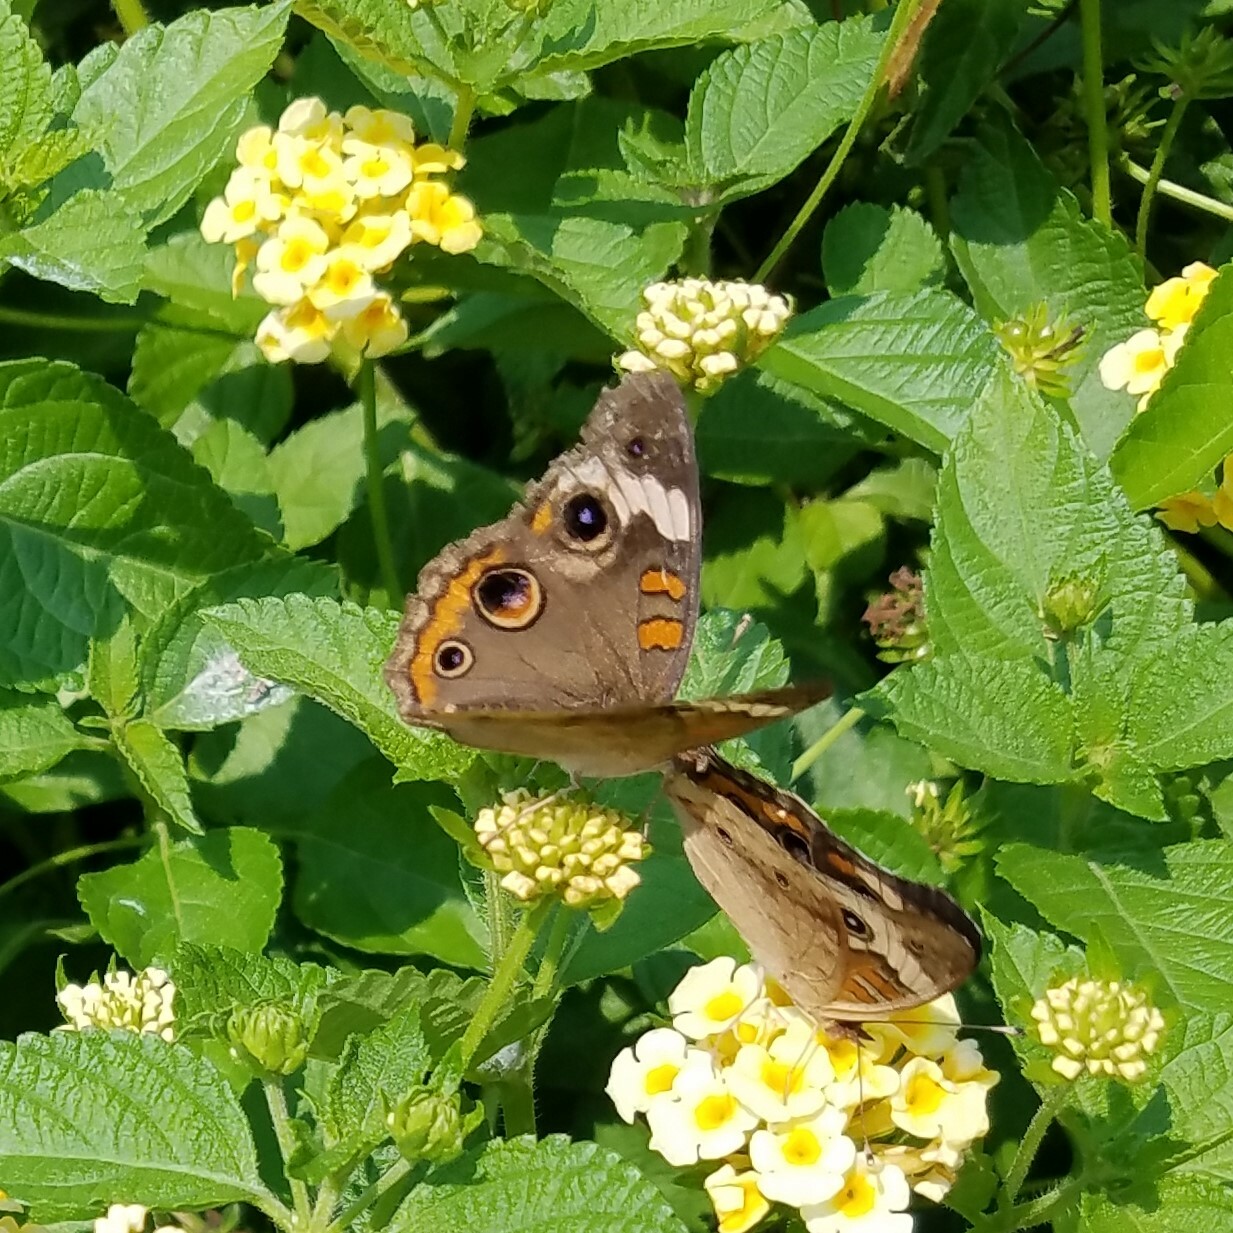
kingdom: Animalia
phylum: Arthropoda
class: Insecta
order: Lepidoptera
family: Nymphalidae
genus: Junonia
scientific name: Junonia coenia
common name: Common buckeye
